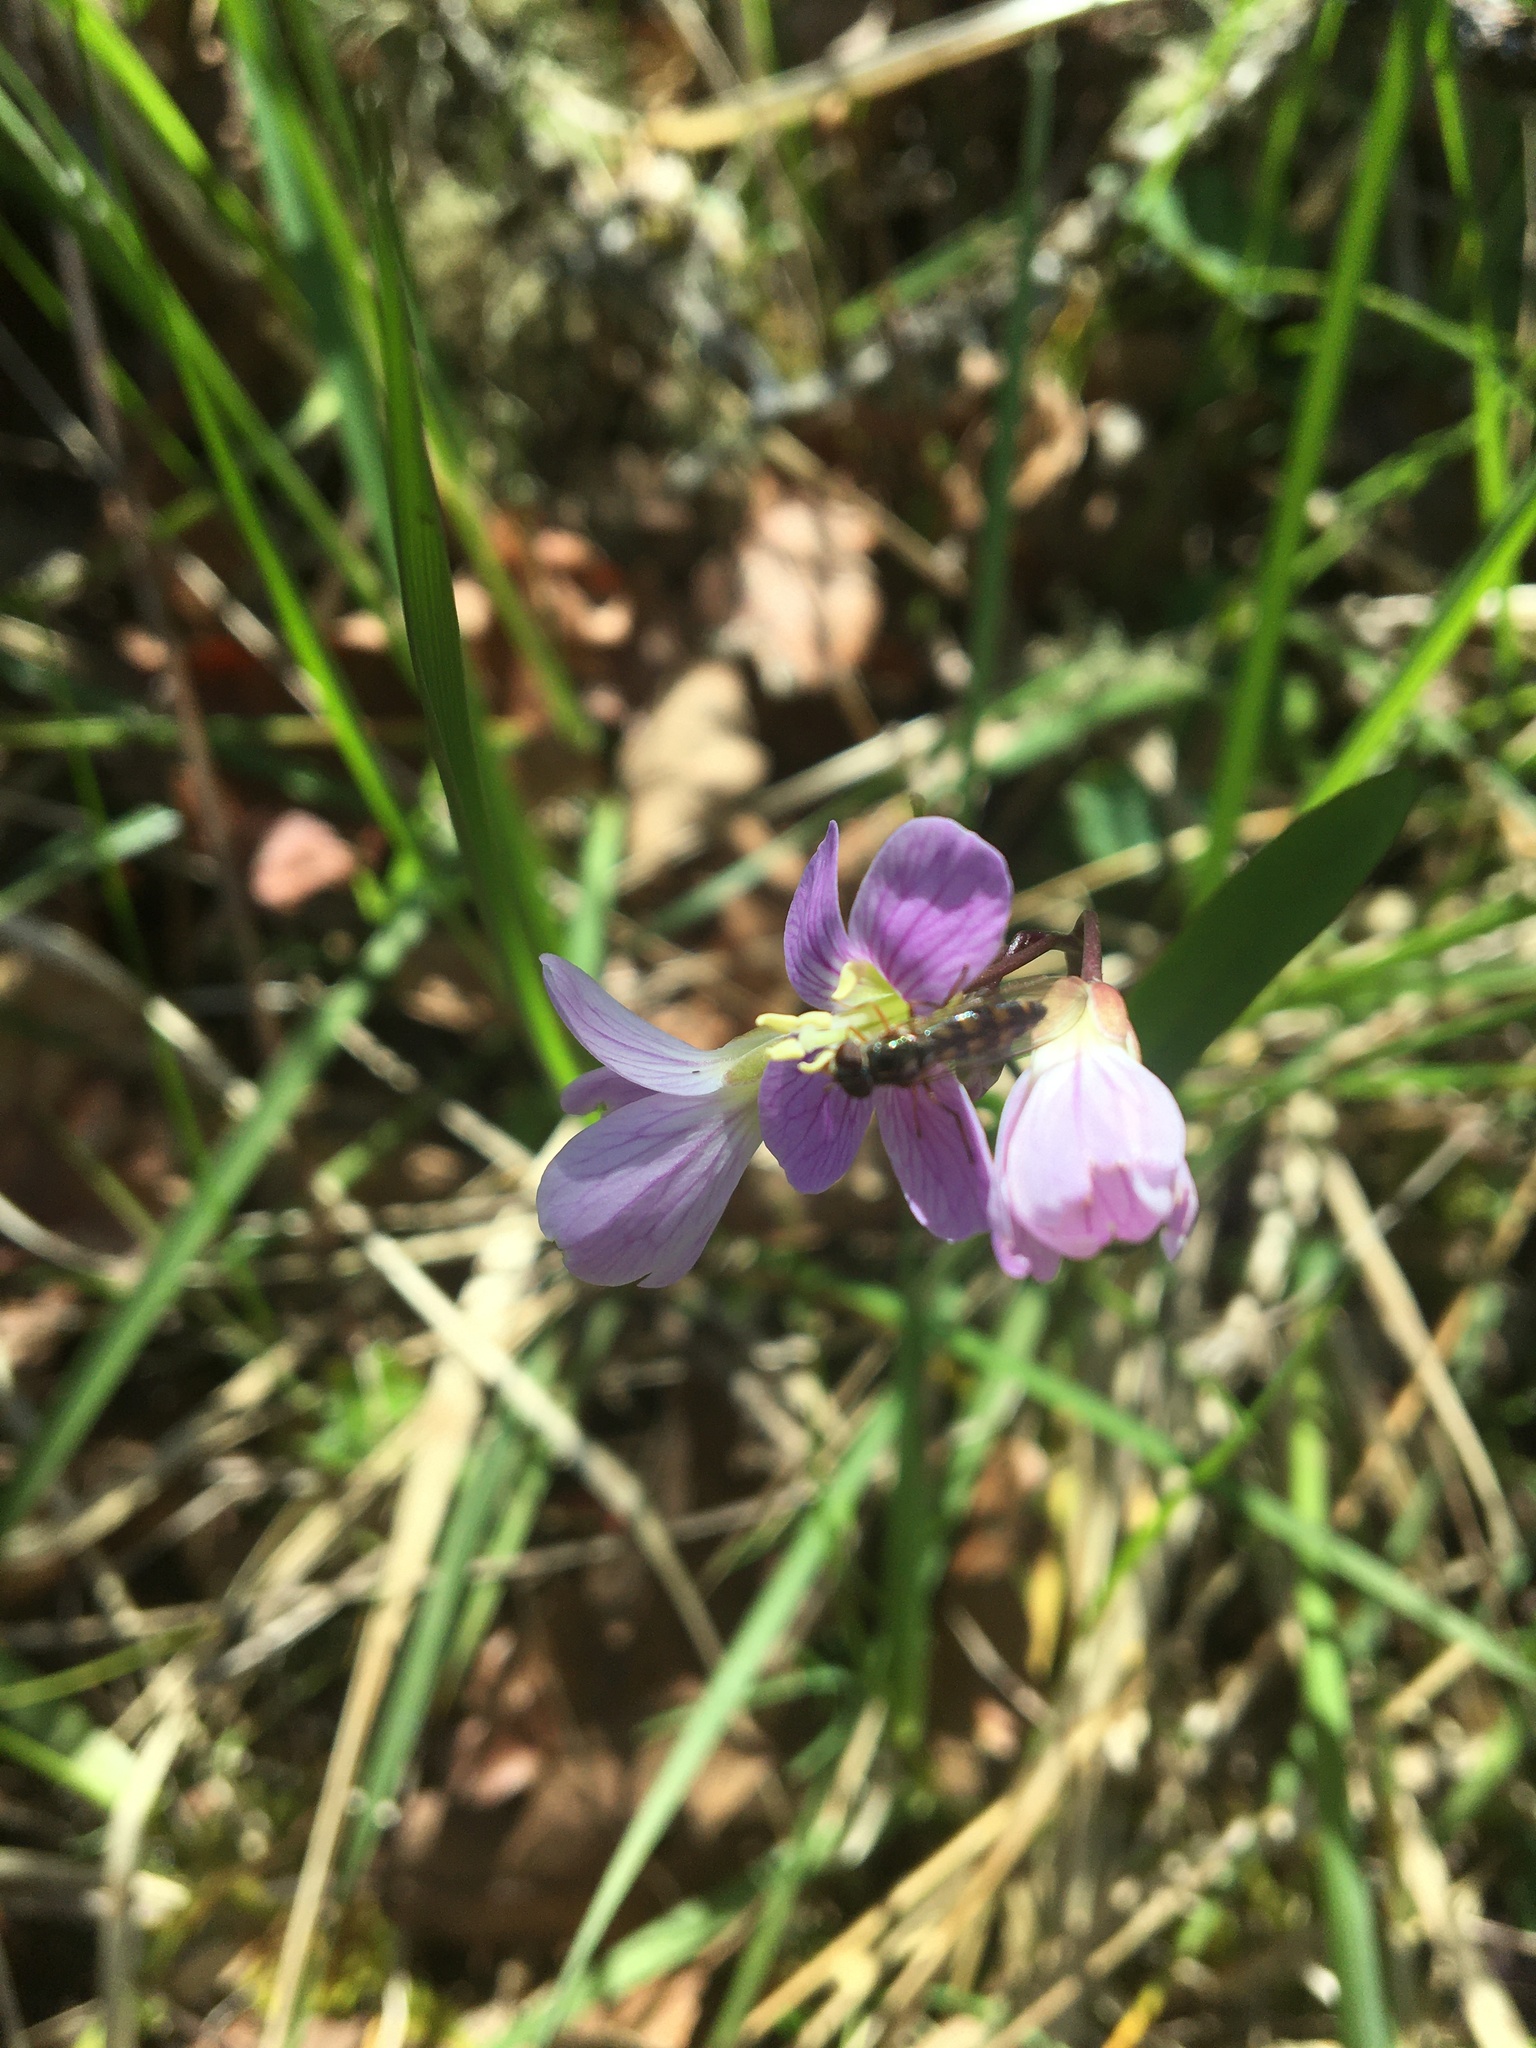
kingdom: Animalia
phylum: Arthropoda
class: Insecta
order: Diptera
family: Syrphidae
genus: Melanostoma
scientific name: Melanostoma mellina
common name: Hover fly
